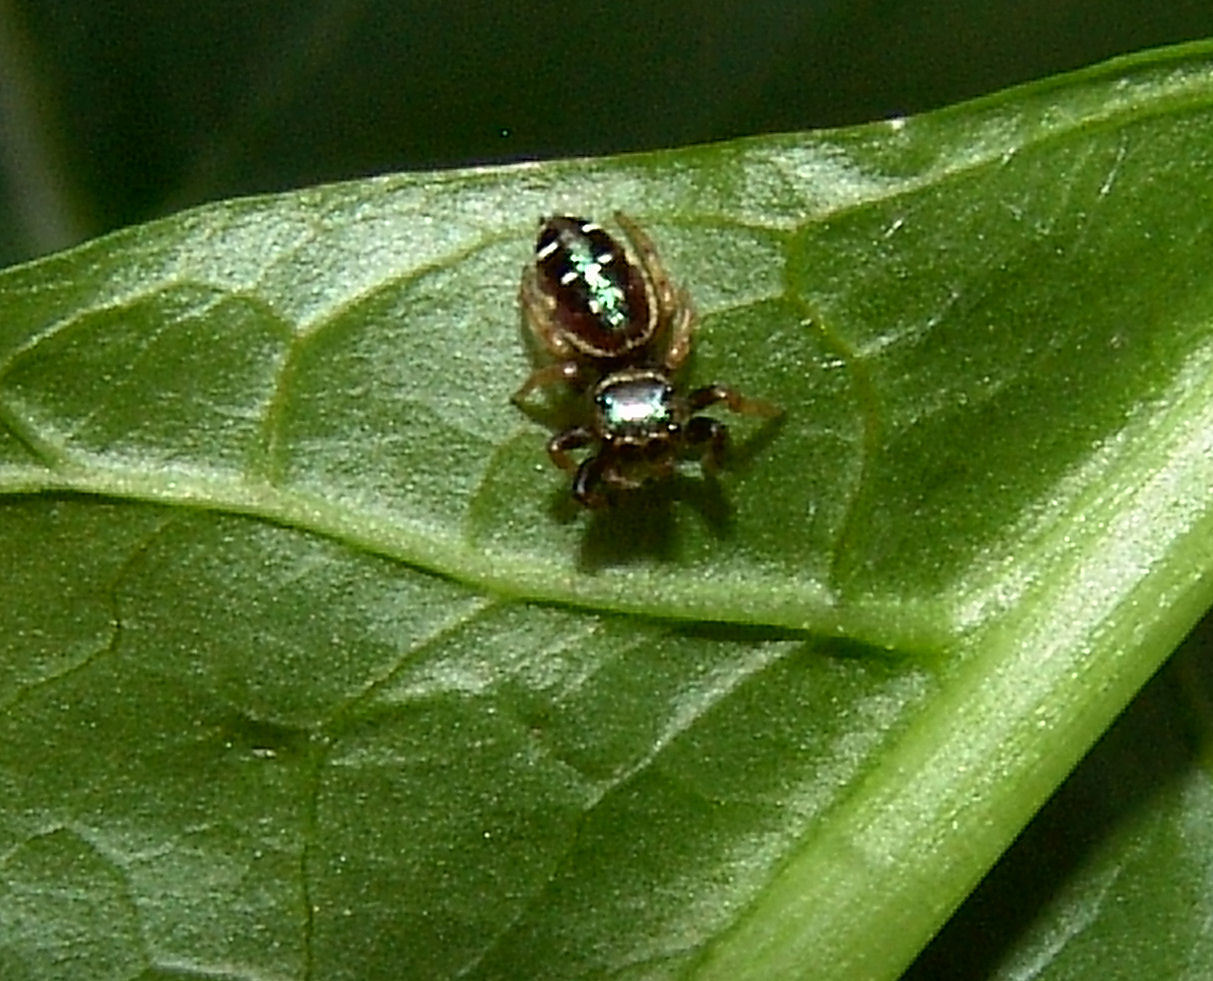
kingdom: Animalia
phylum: Arthropoda
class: Arachnida
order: Araneae
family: Salticidae
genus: Paraphidippus
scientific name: Paraphidippus aurantius
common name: Jumping spiders
